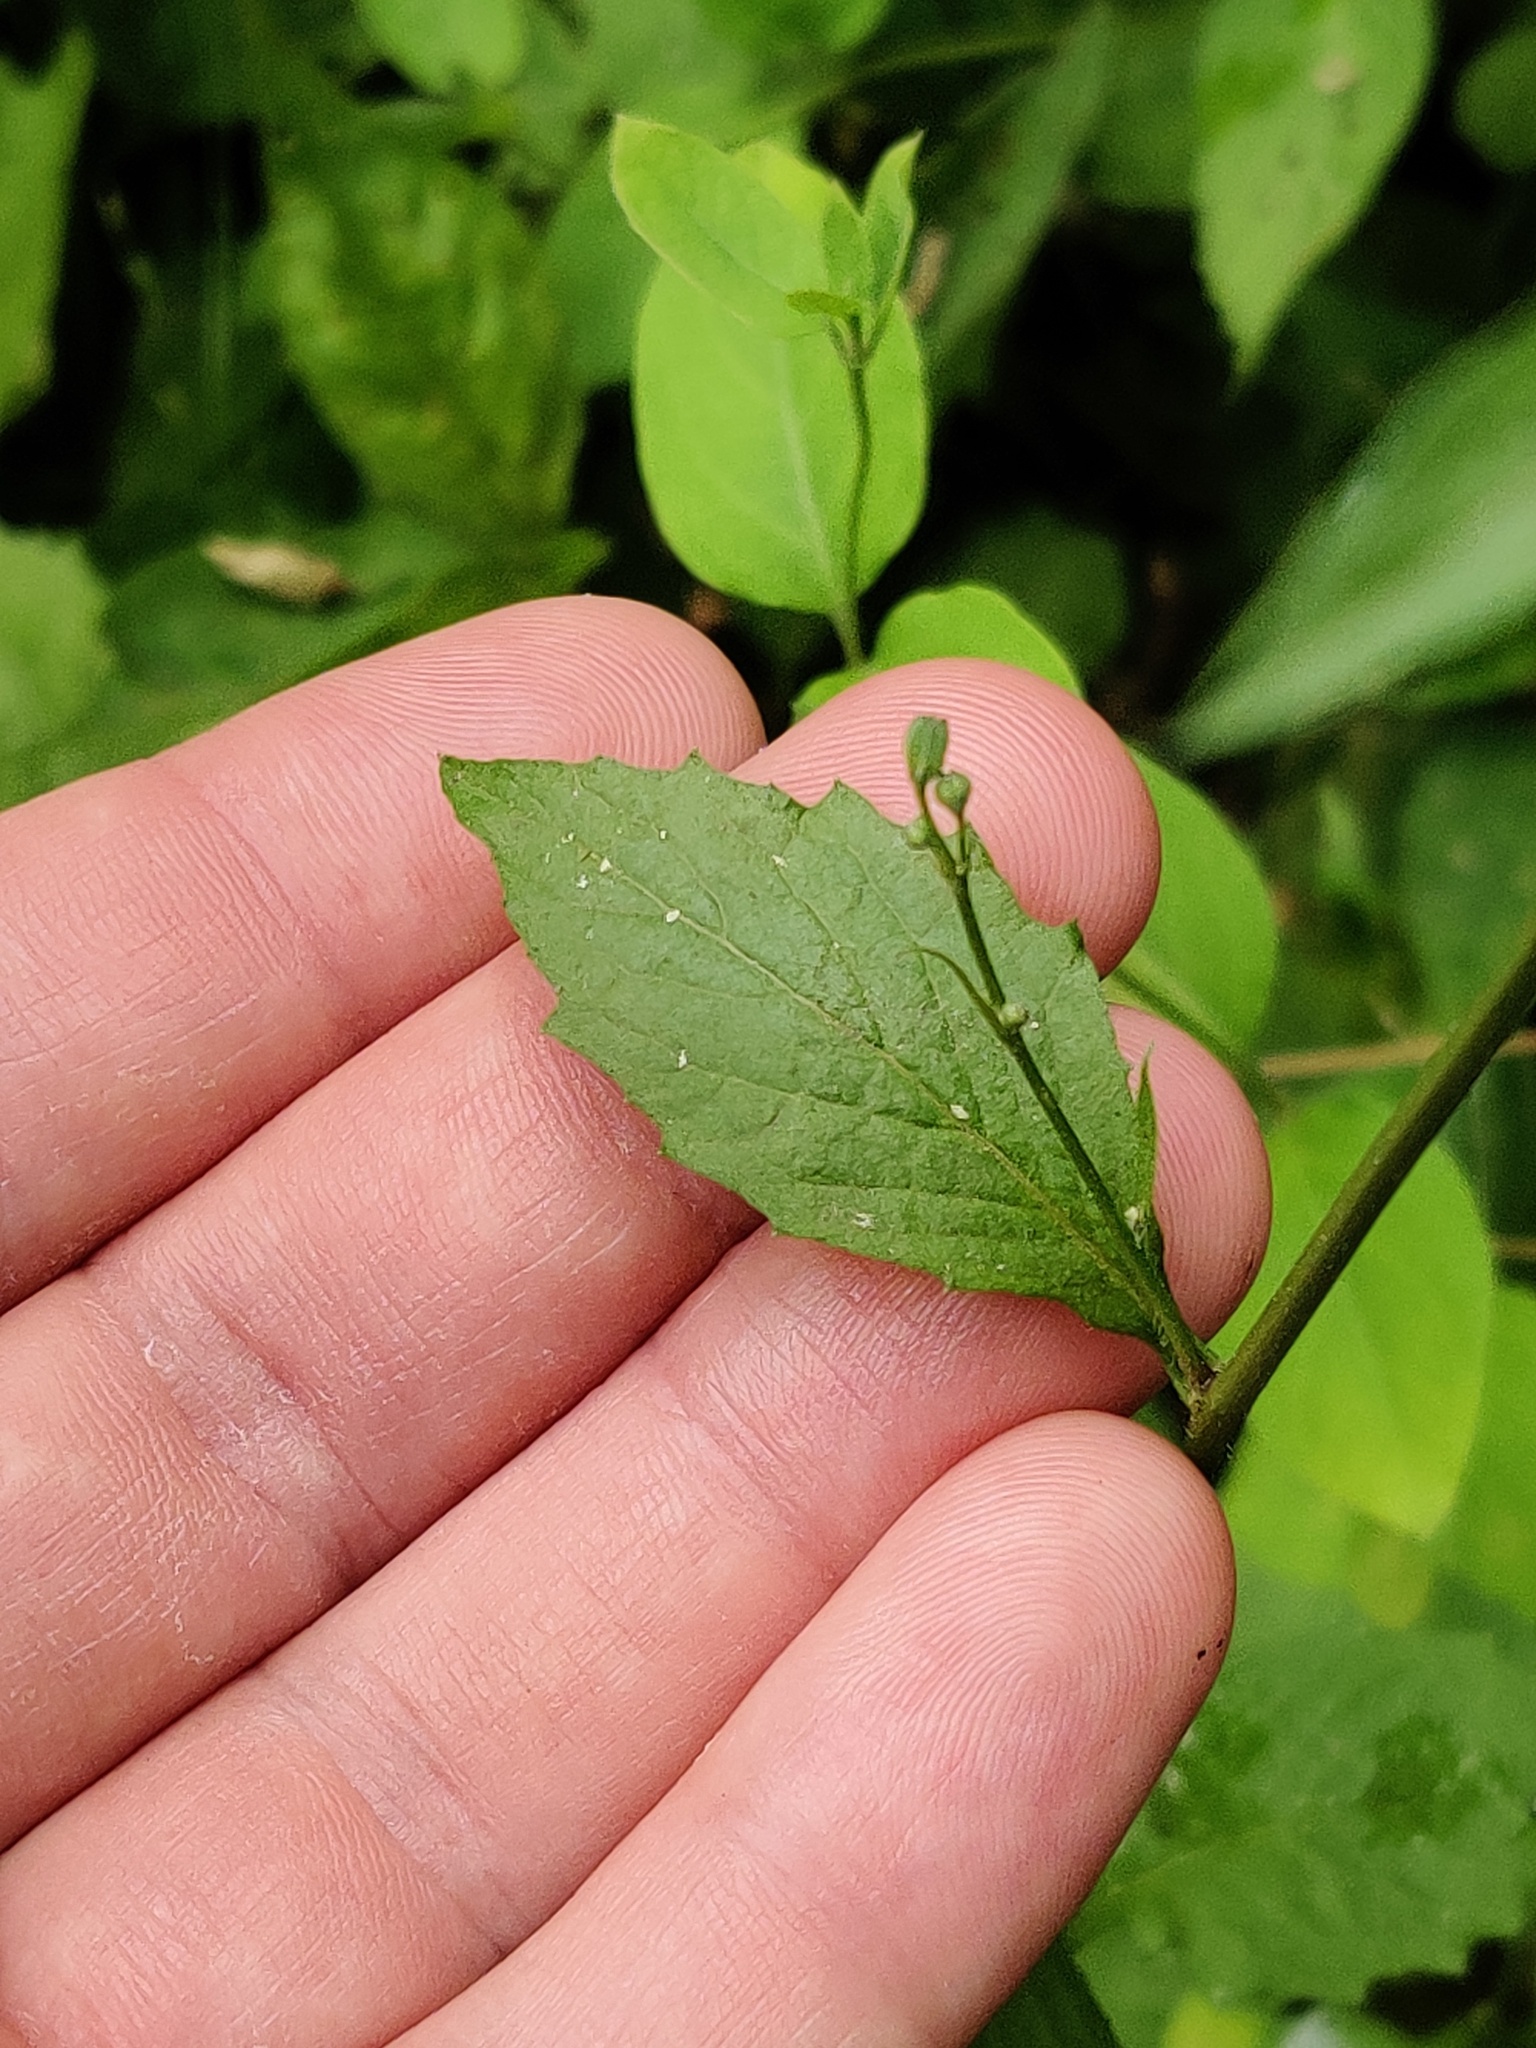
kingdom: Plantae
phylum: Tracheophyta
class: Magnoliopsida
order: Asterales
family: Asteraceae
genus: Lapsana
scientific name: Lapsana communis
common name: Nipplewort
